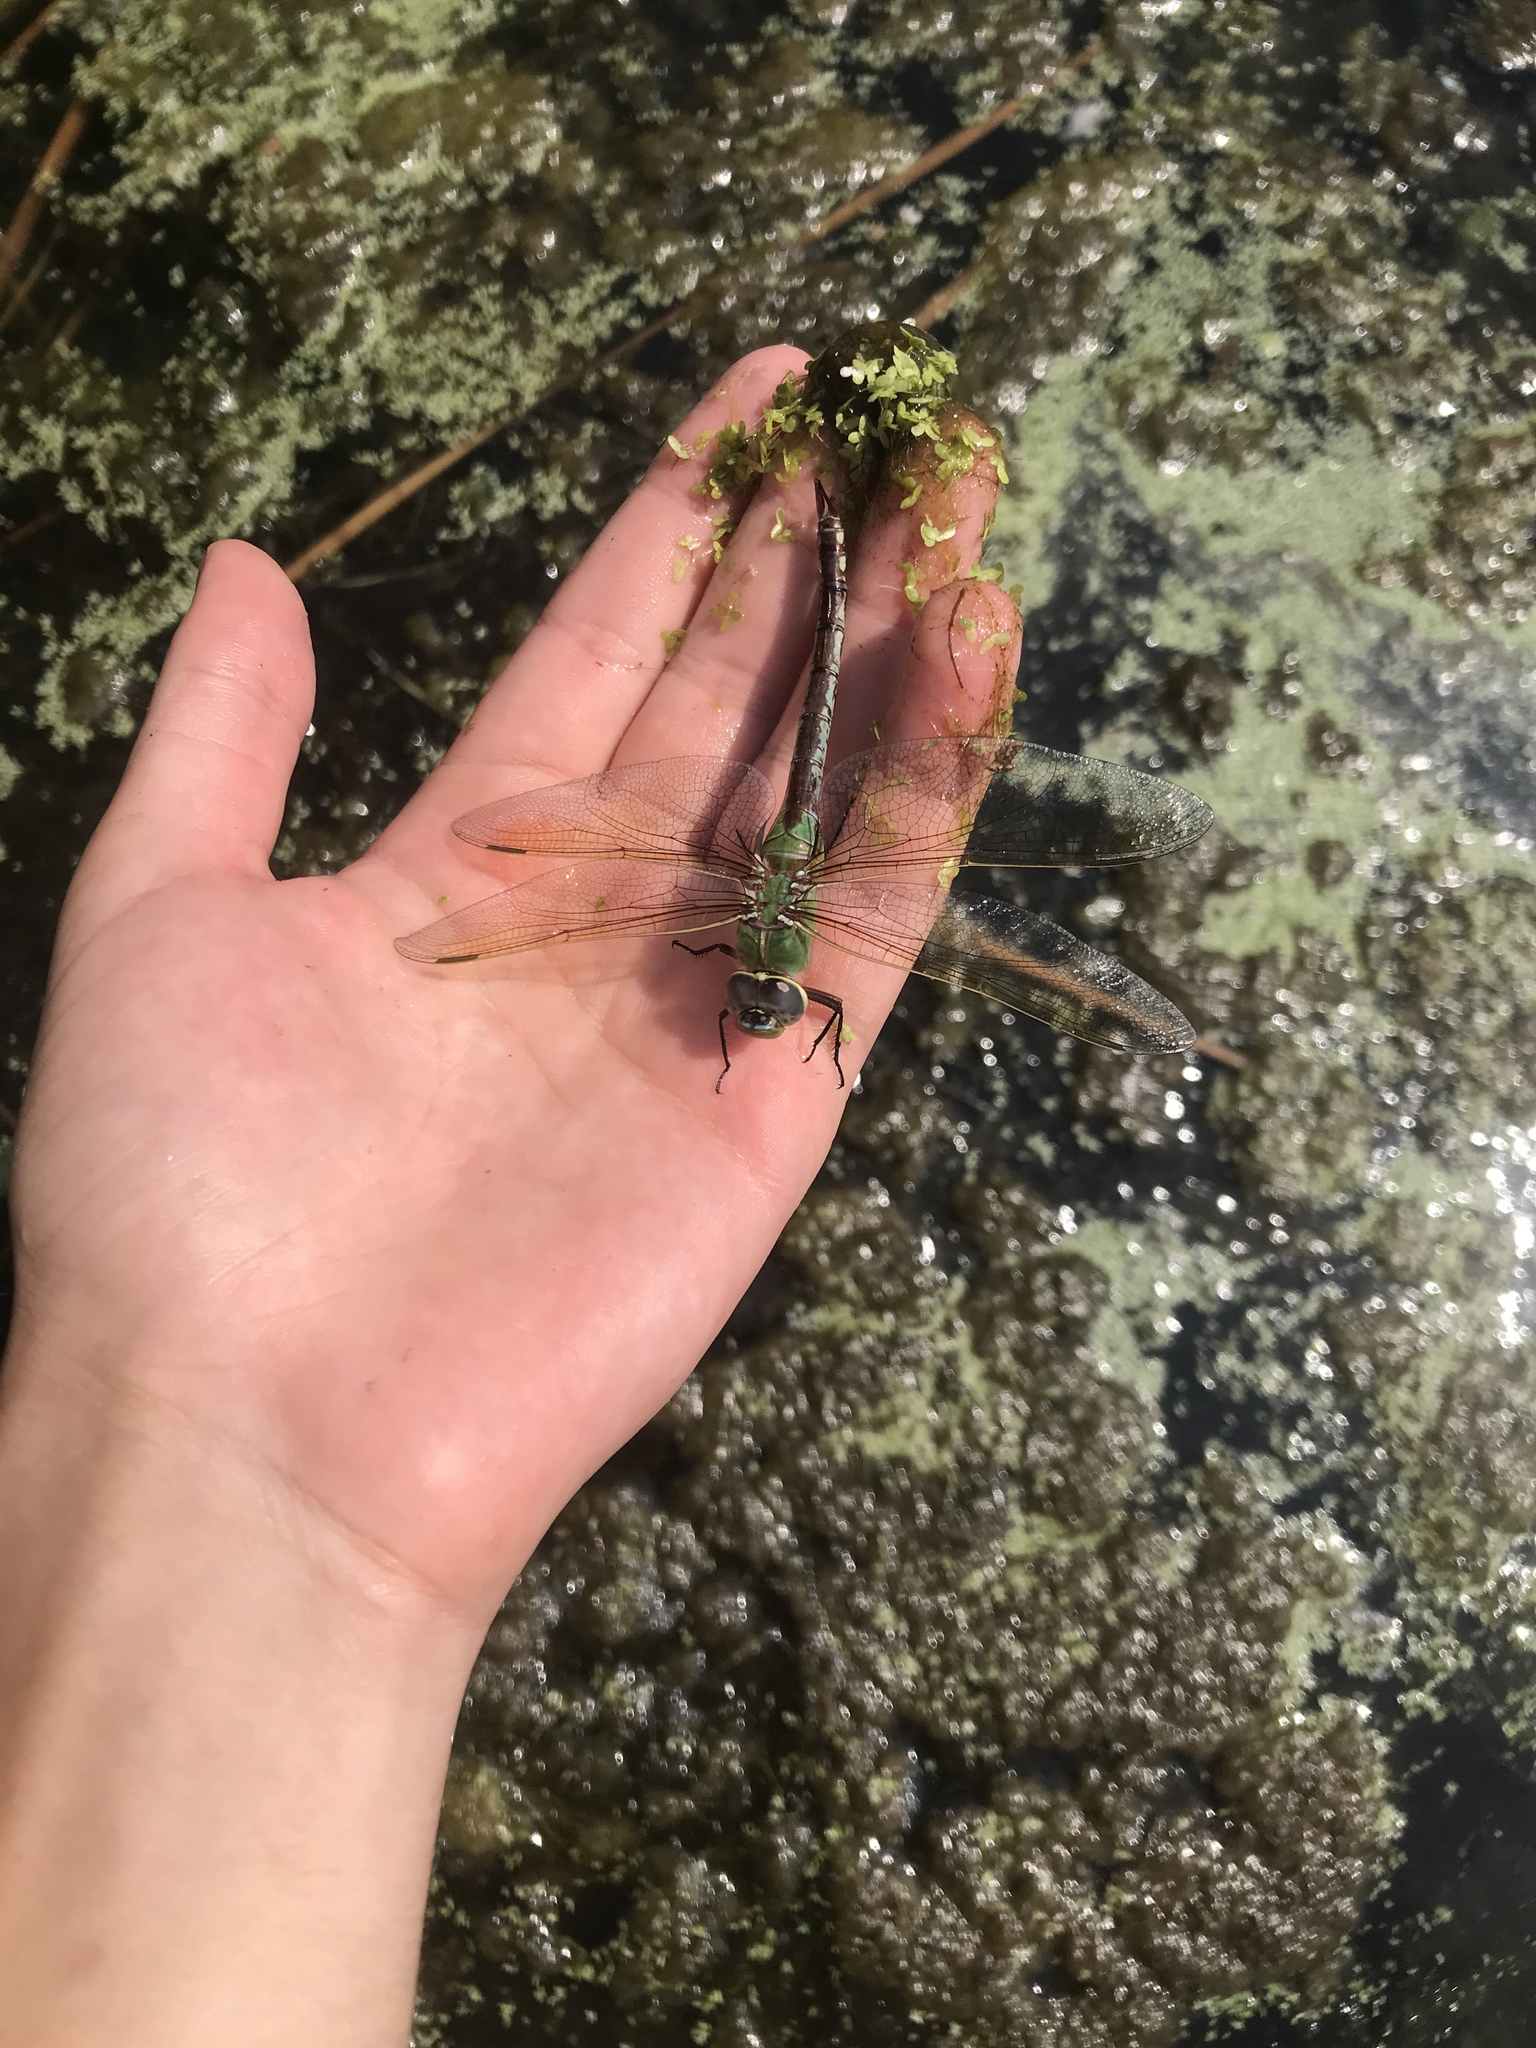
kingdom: Animalia
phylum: Arthropoda
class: Insecta
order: Odonata
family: Aeshnidae
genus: Anax
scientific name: Anax junius
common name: Common green darner
